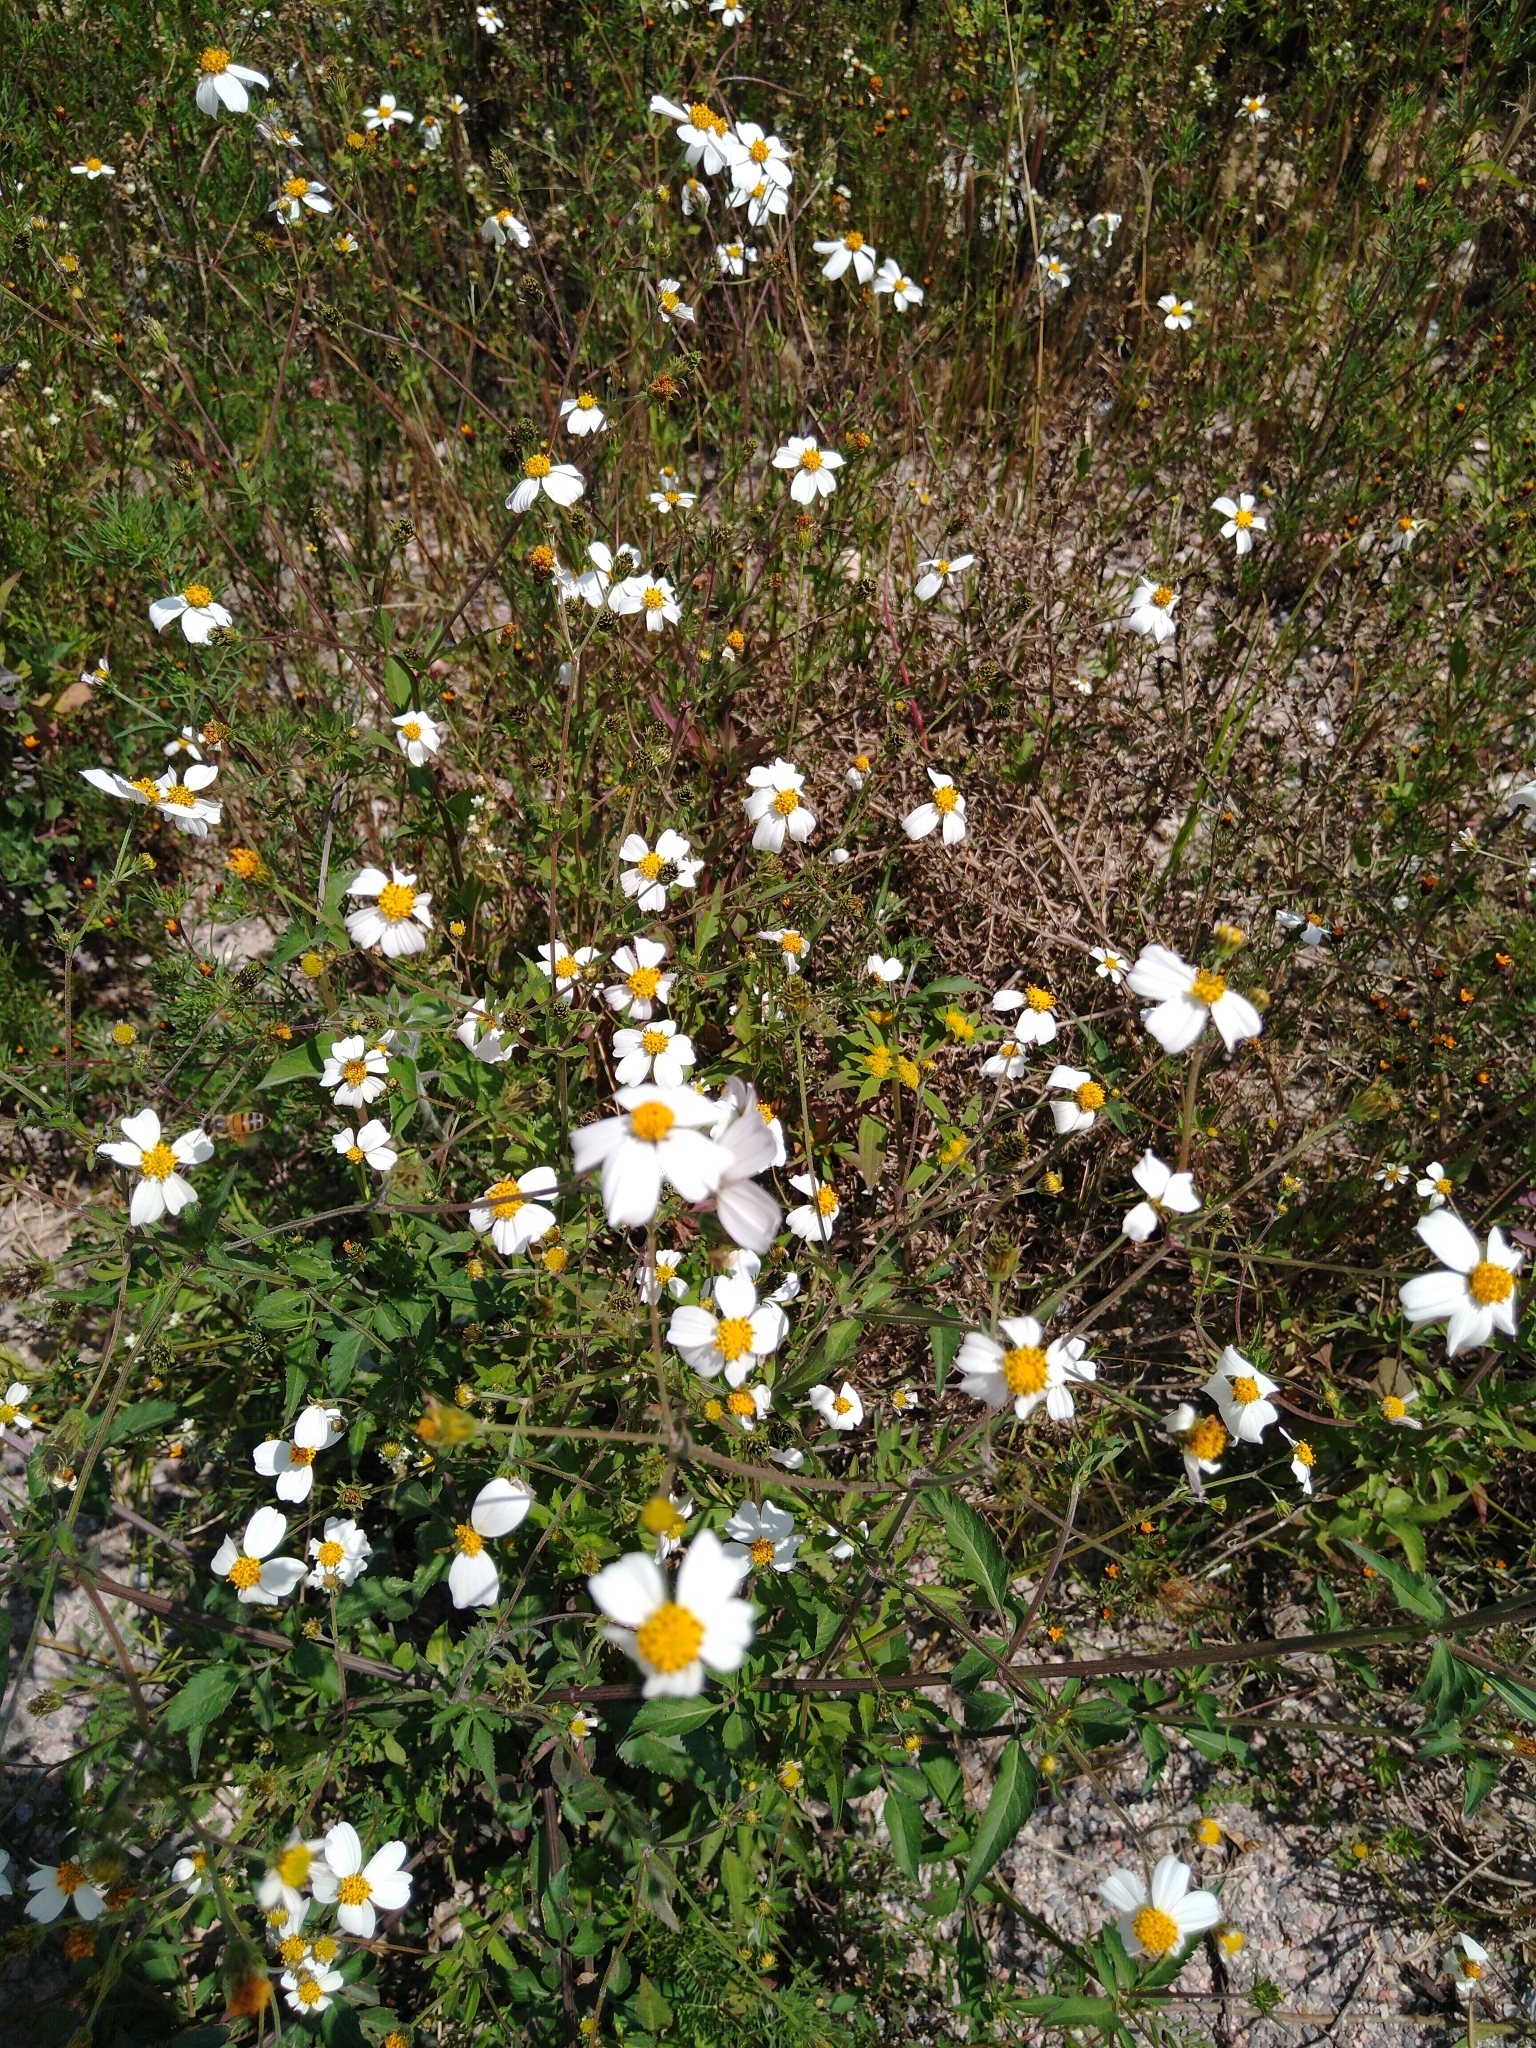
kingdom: Plantae
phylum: Tracheophyta
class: Magnoliopsida
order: Asterales
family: Asteraceae
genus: Bidens
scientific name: Bidens odorata
